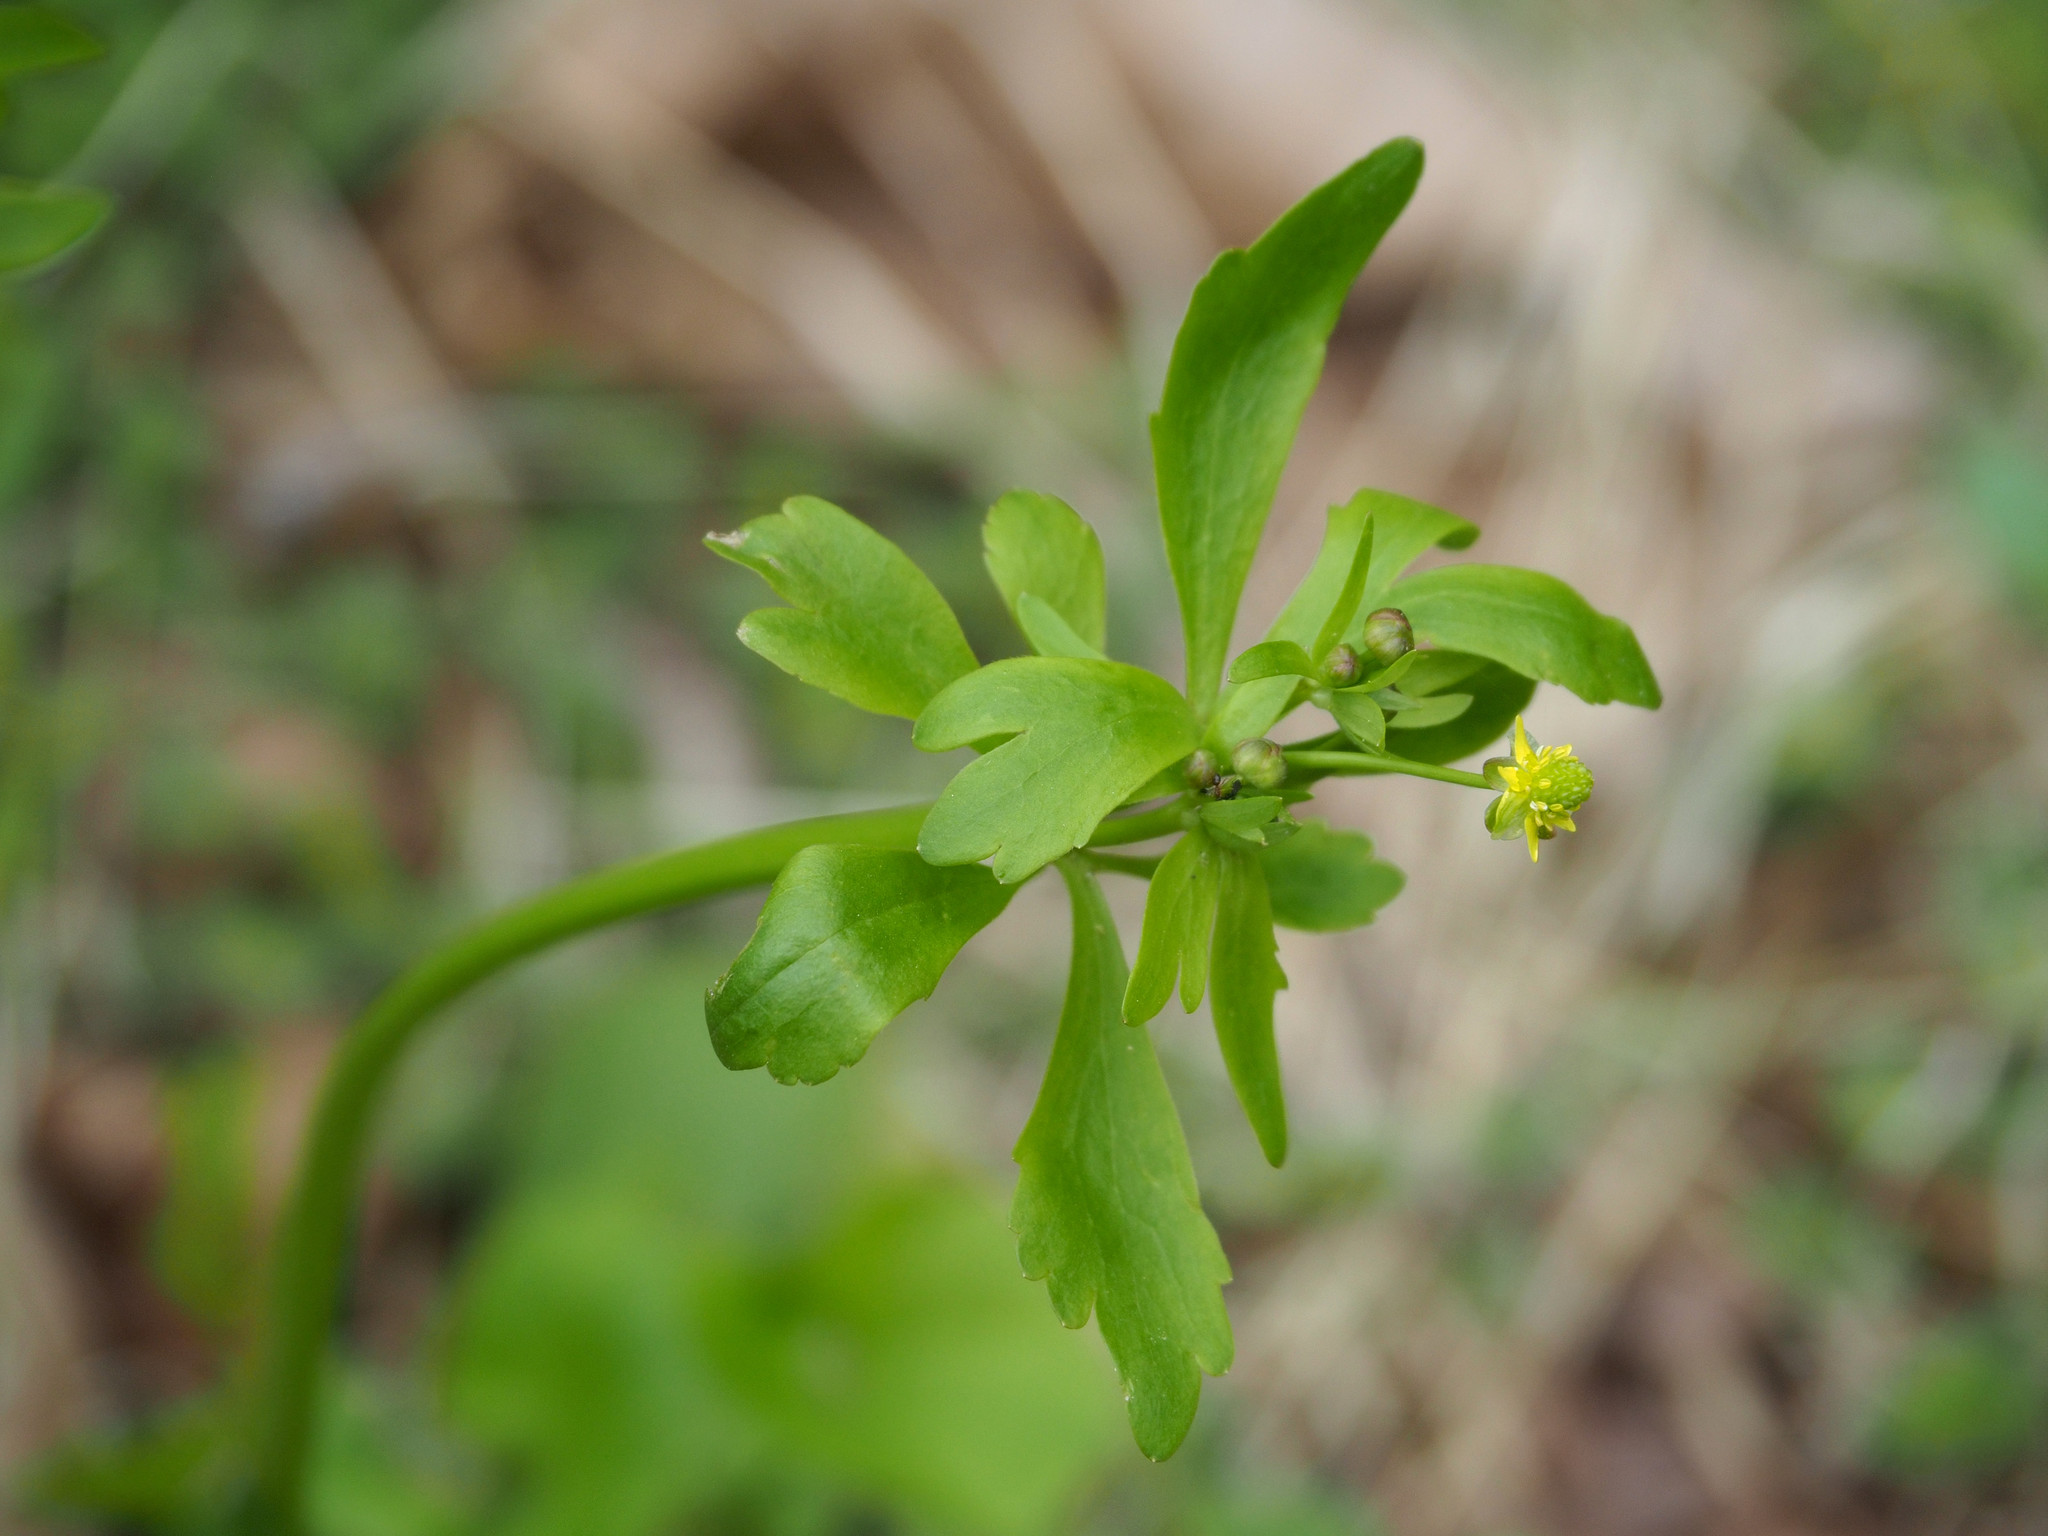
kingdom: Plantae
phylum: Tracheophyta
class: Magnoliopsida
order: Ranunculales
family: Ranunculaceae
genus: Ranunculus
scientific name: Ranunculus abortivus
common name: Early wood buttercup
